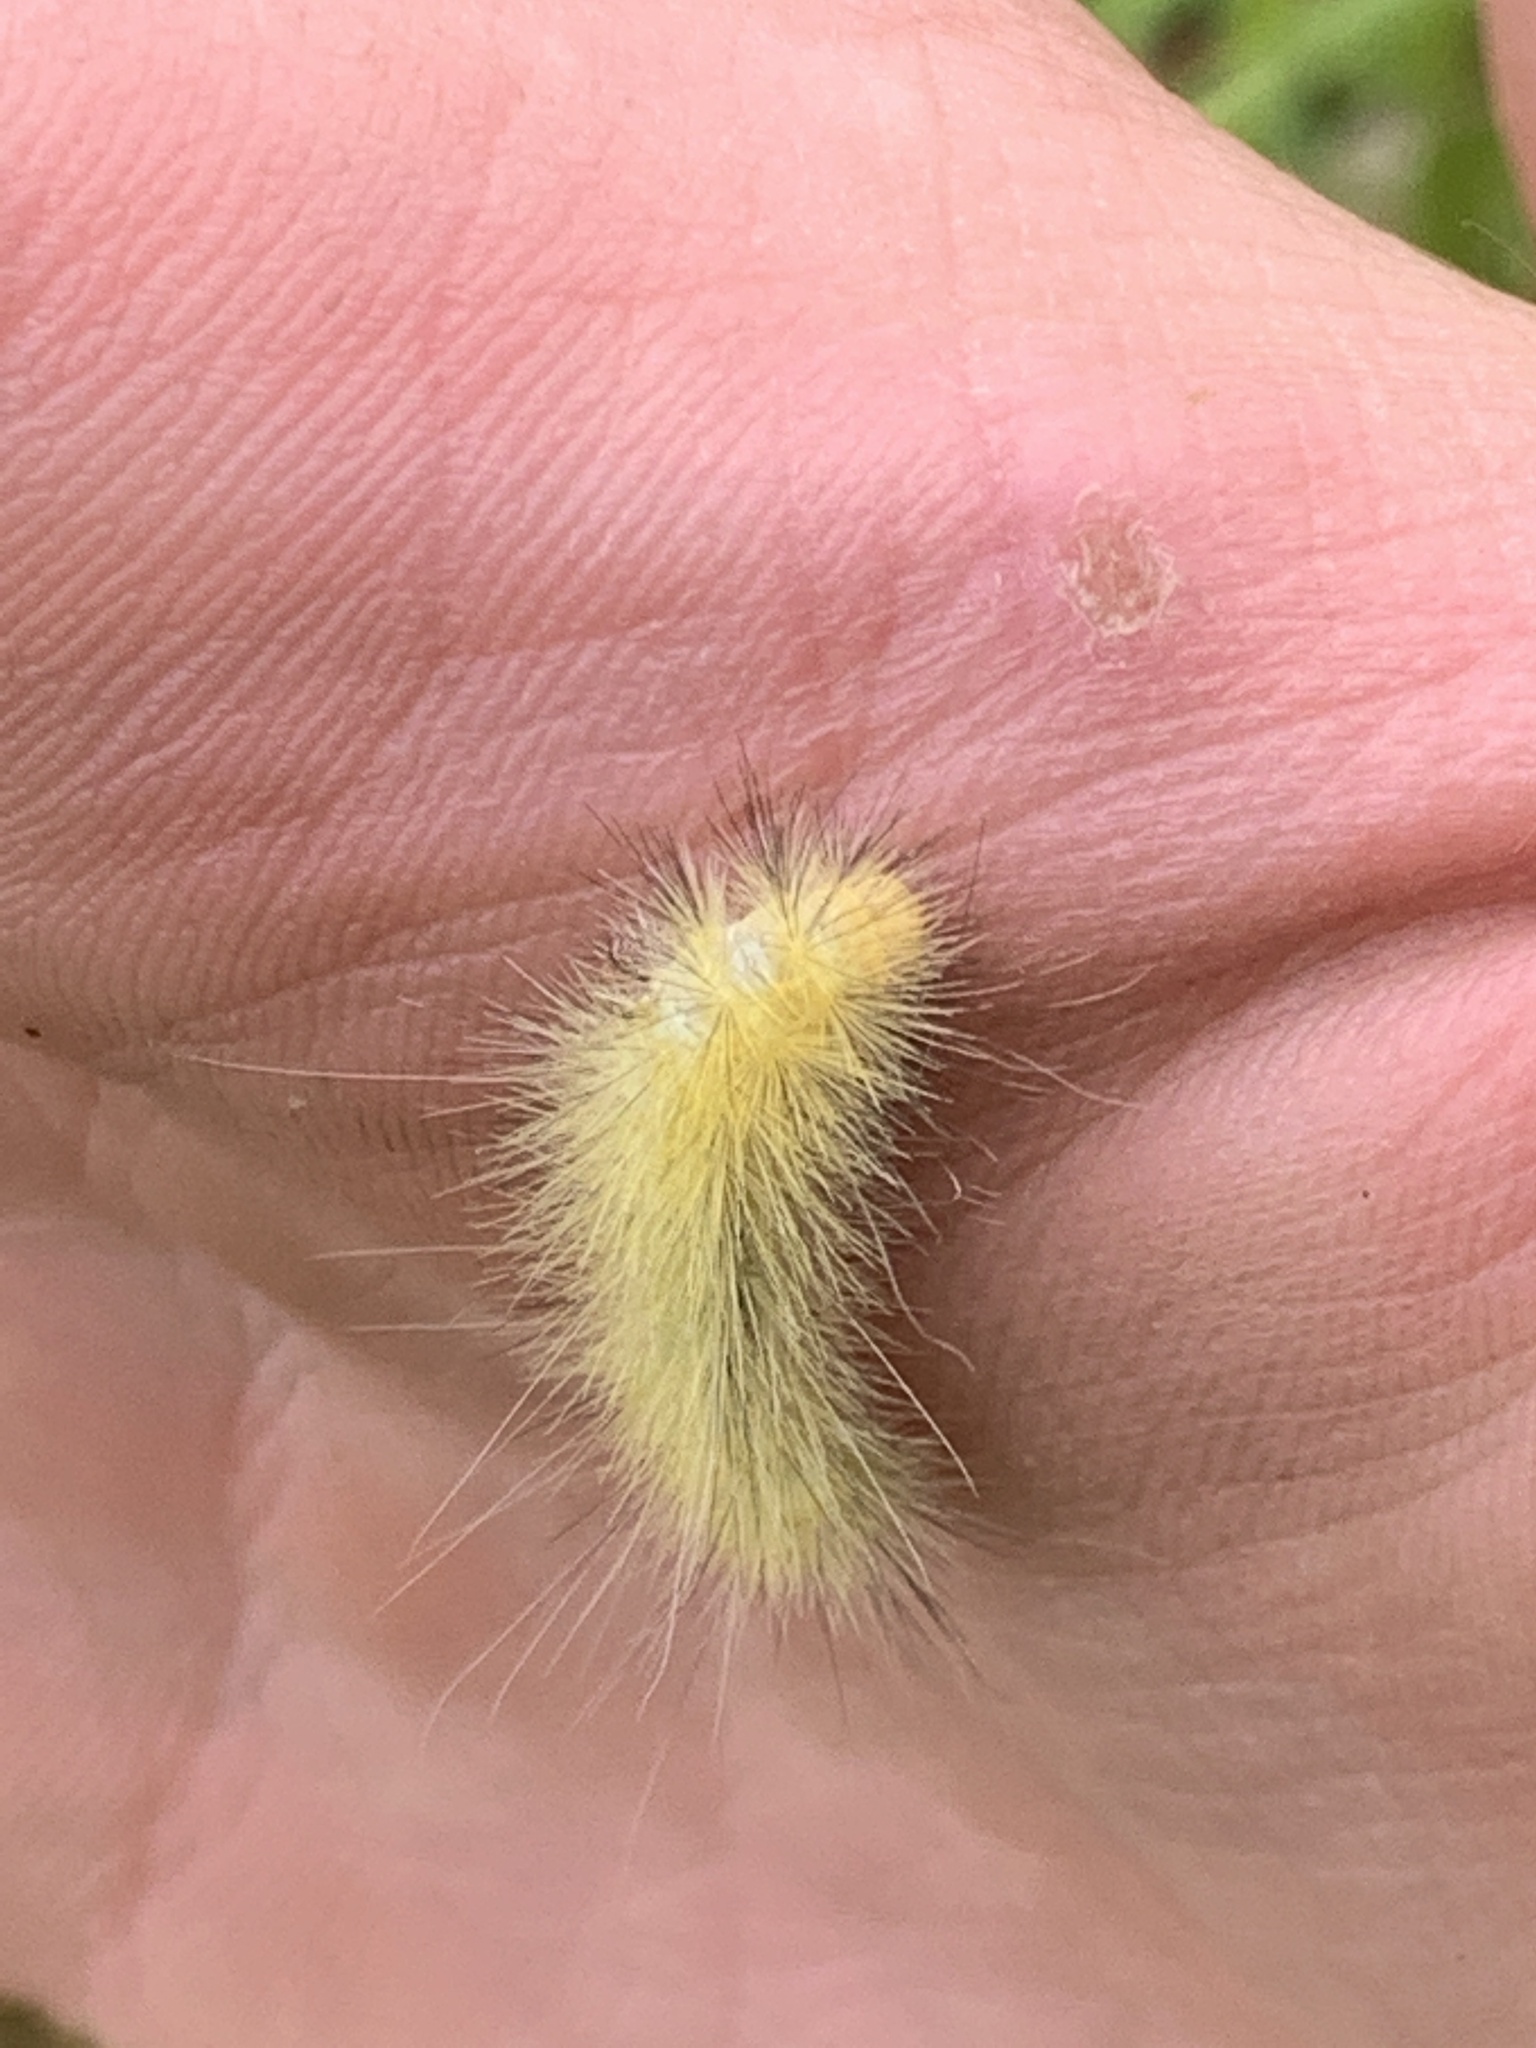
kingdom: Animalia
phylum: Arthropoda
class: Insecta
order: Lepidoptera
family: Erebidae
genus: Spilosoma
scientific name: Spilosoma virginica
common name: Virginia tiger moth
